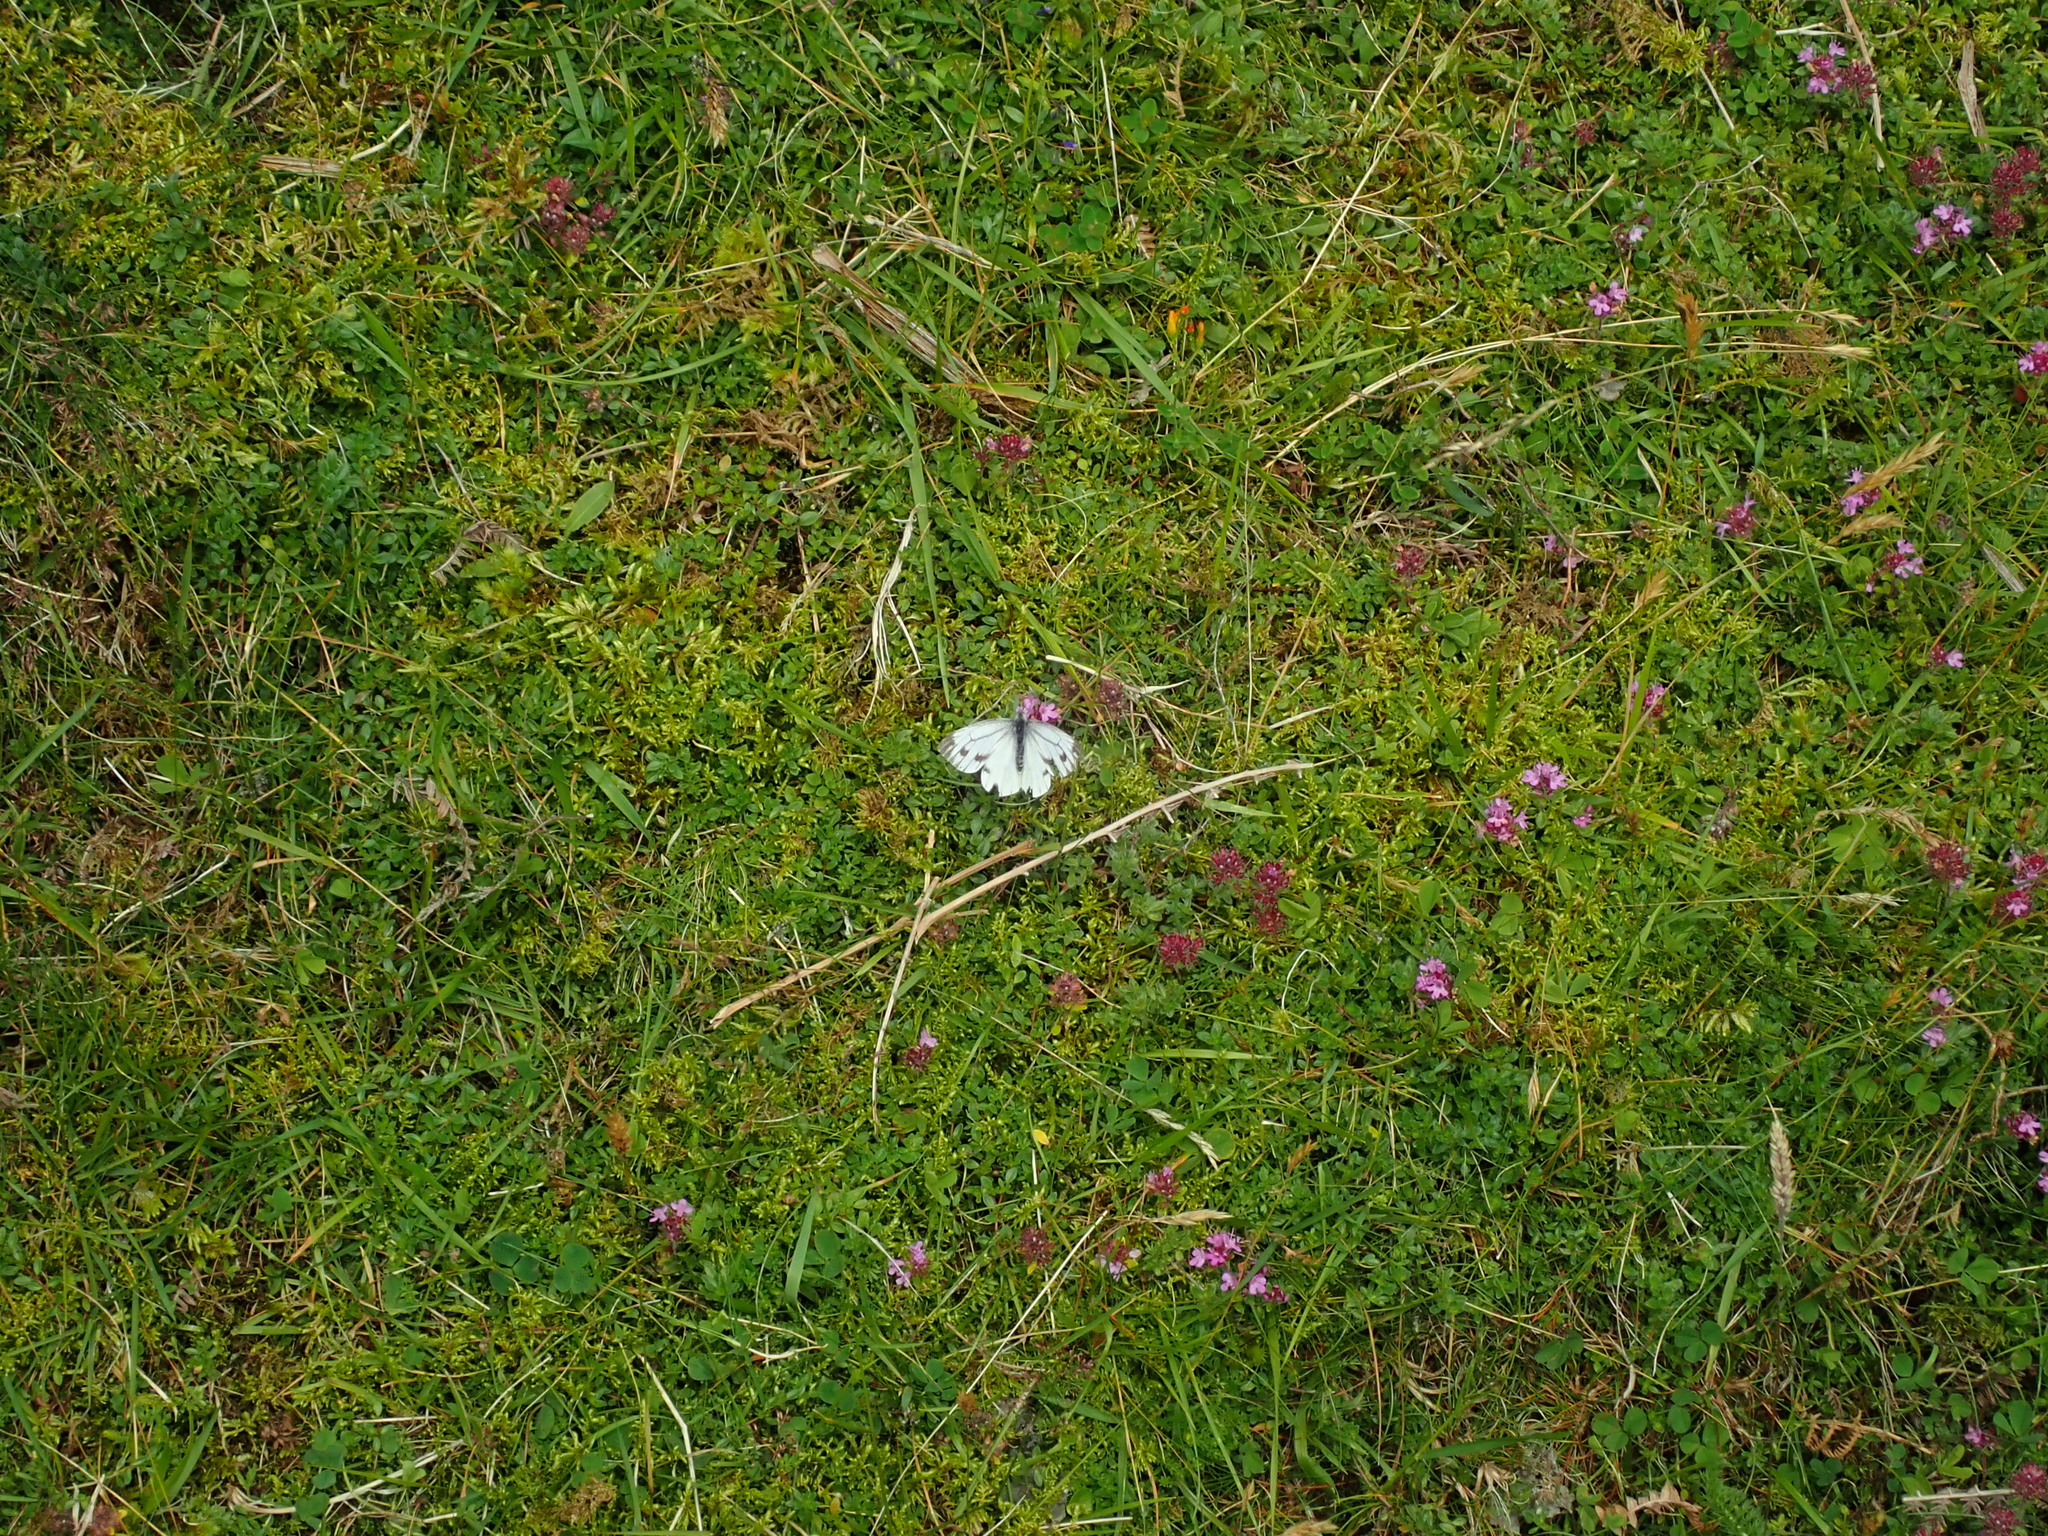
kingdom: Animalia
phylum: Arthropoda
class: Insecta
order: Lepidoptera
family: Pieridae
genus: Pieris
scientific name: Pieris napi
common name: Green-veined white
